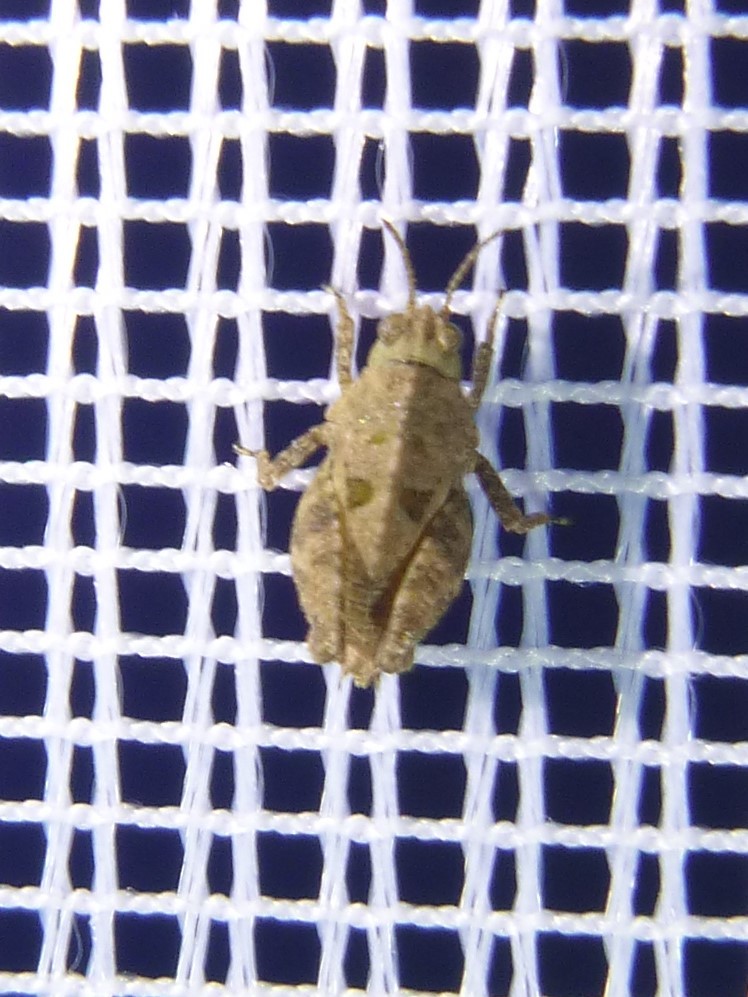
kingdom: Animalia
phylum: Arthropoda
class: Insecta
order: Orthoptera
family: Tetrigidae
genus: Tetrix
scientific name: Tetrix tenuicornis
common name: Long-horned groundhopper
